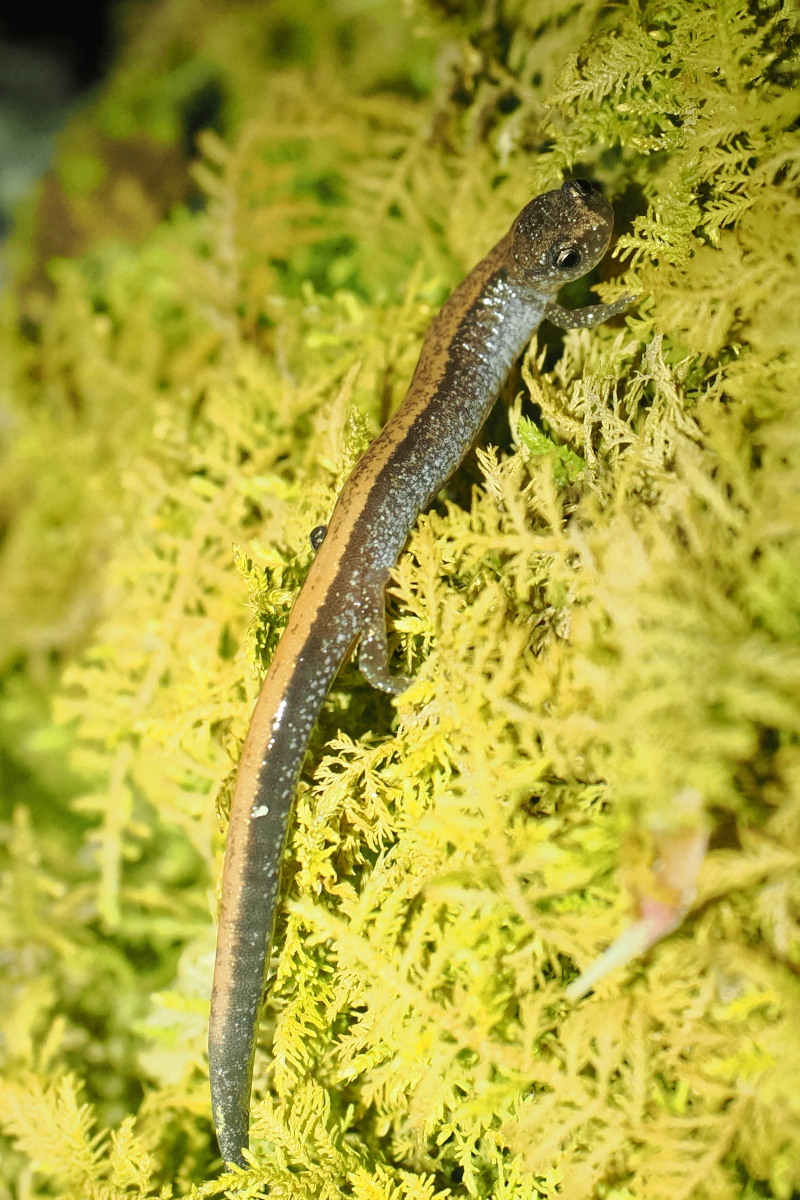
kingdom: Animalia
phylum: Chordata
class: Amphibia
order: Caudata
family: Plethodontidae
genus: Plethodon
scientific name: Plethodon cinereus
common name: Redback salamander
